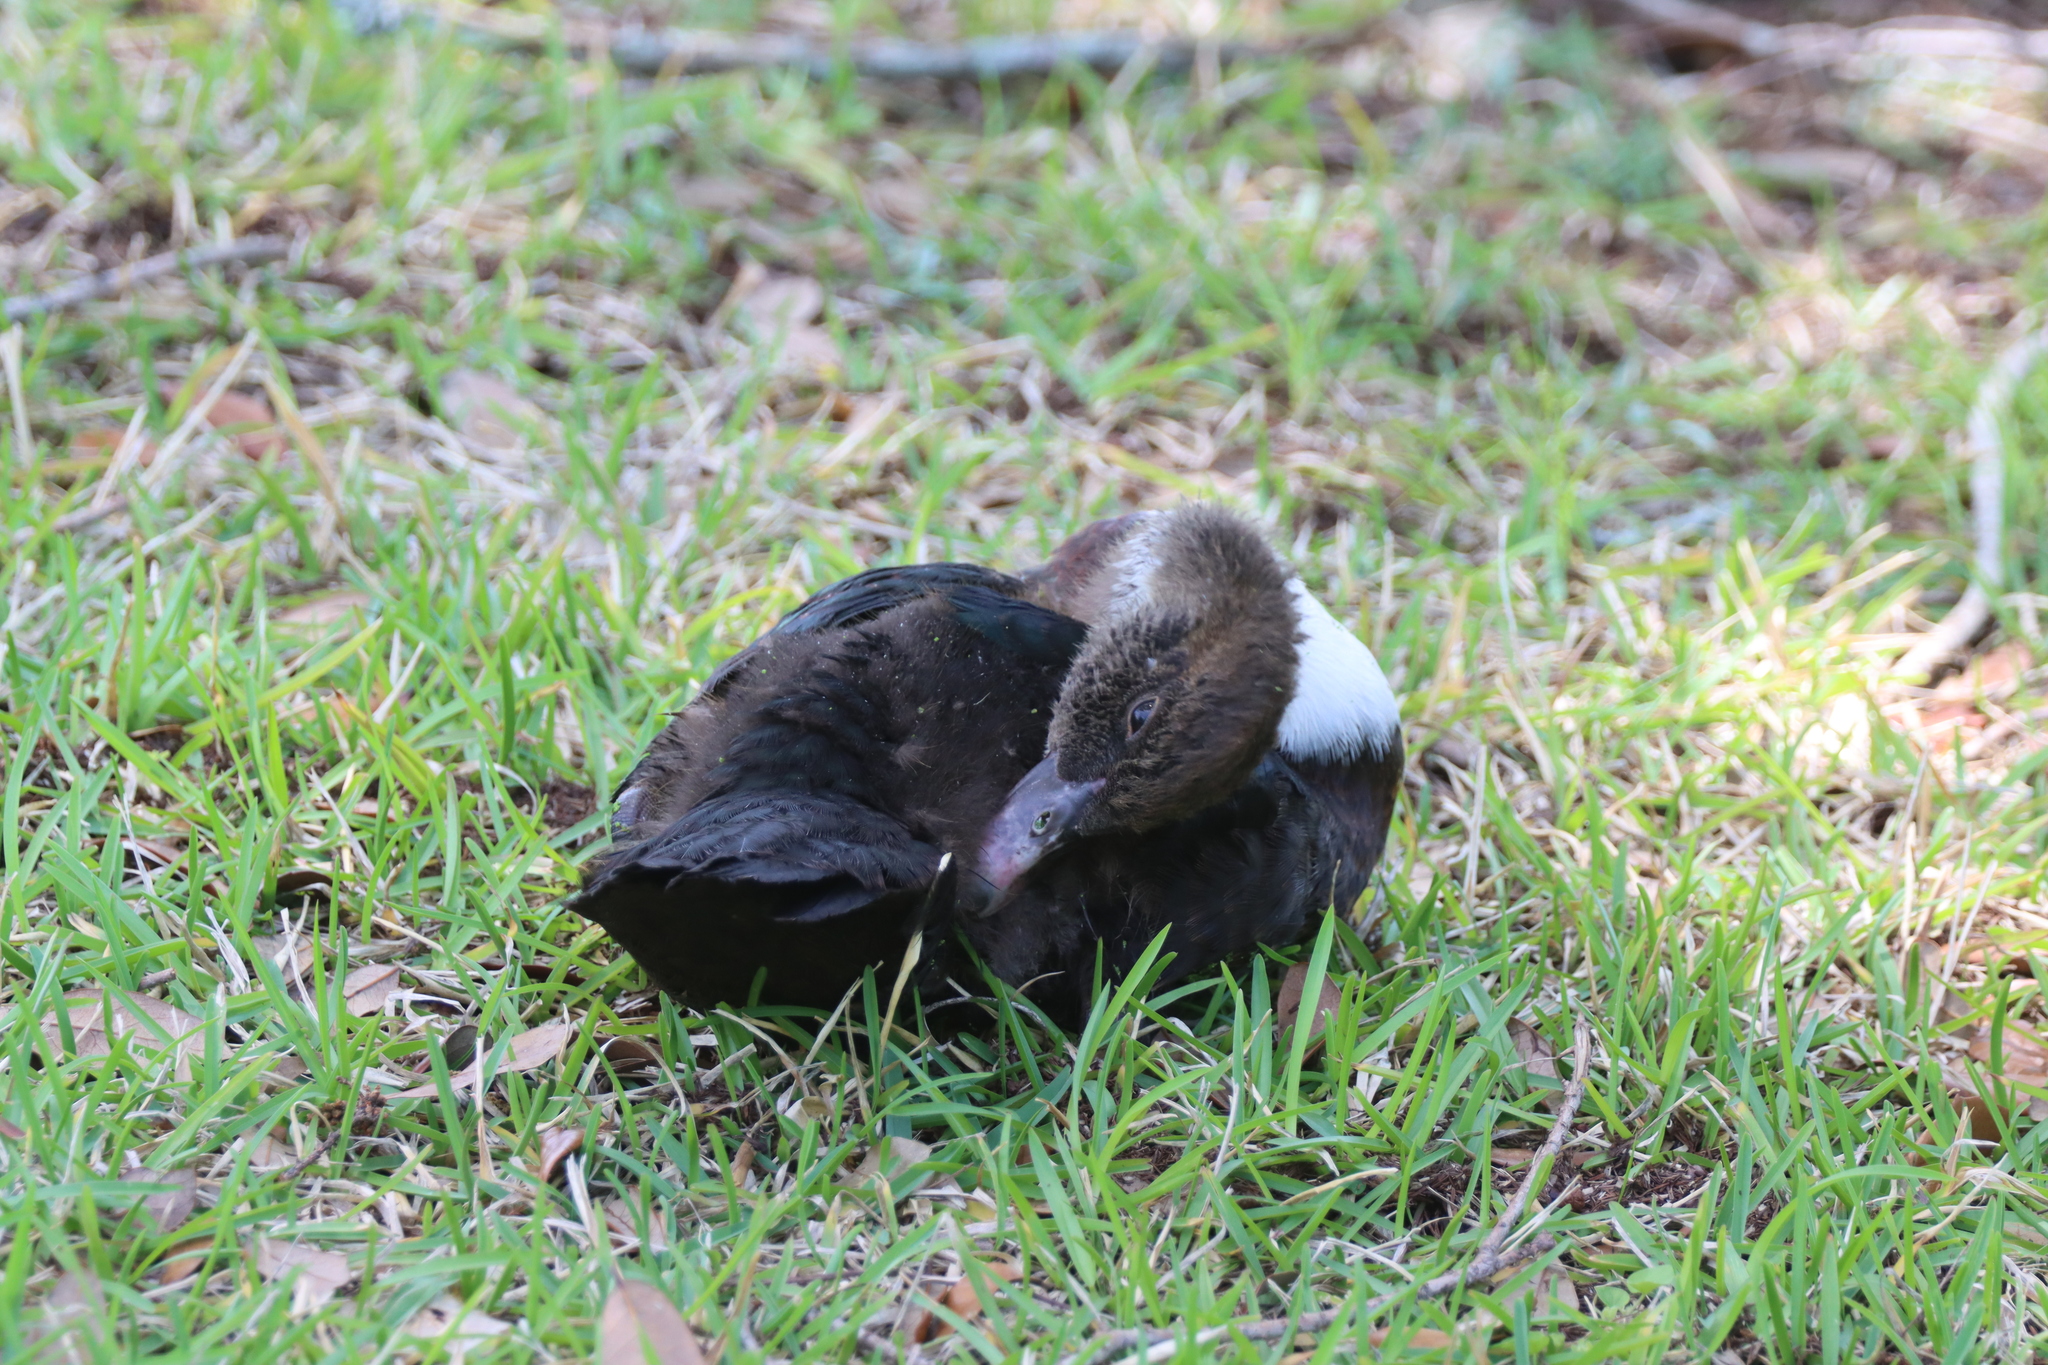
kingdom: Animalia
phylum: Chordata
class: Aves
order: Anseriformes
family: Anatidae
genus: Cairina
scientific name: Cairina moschata
